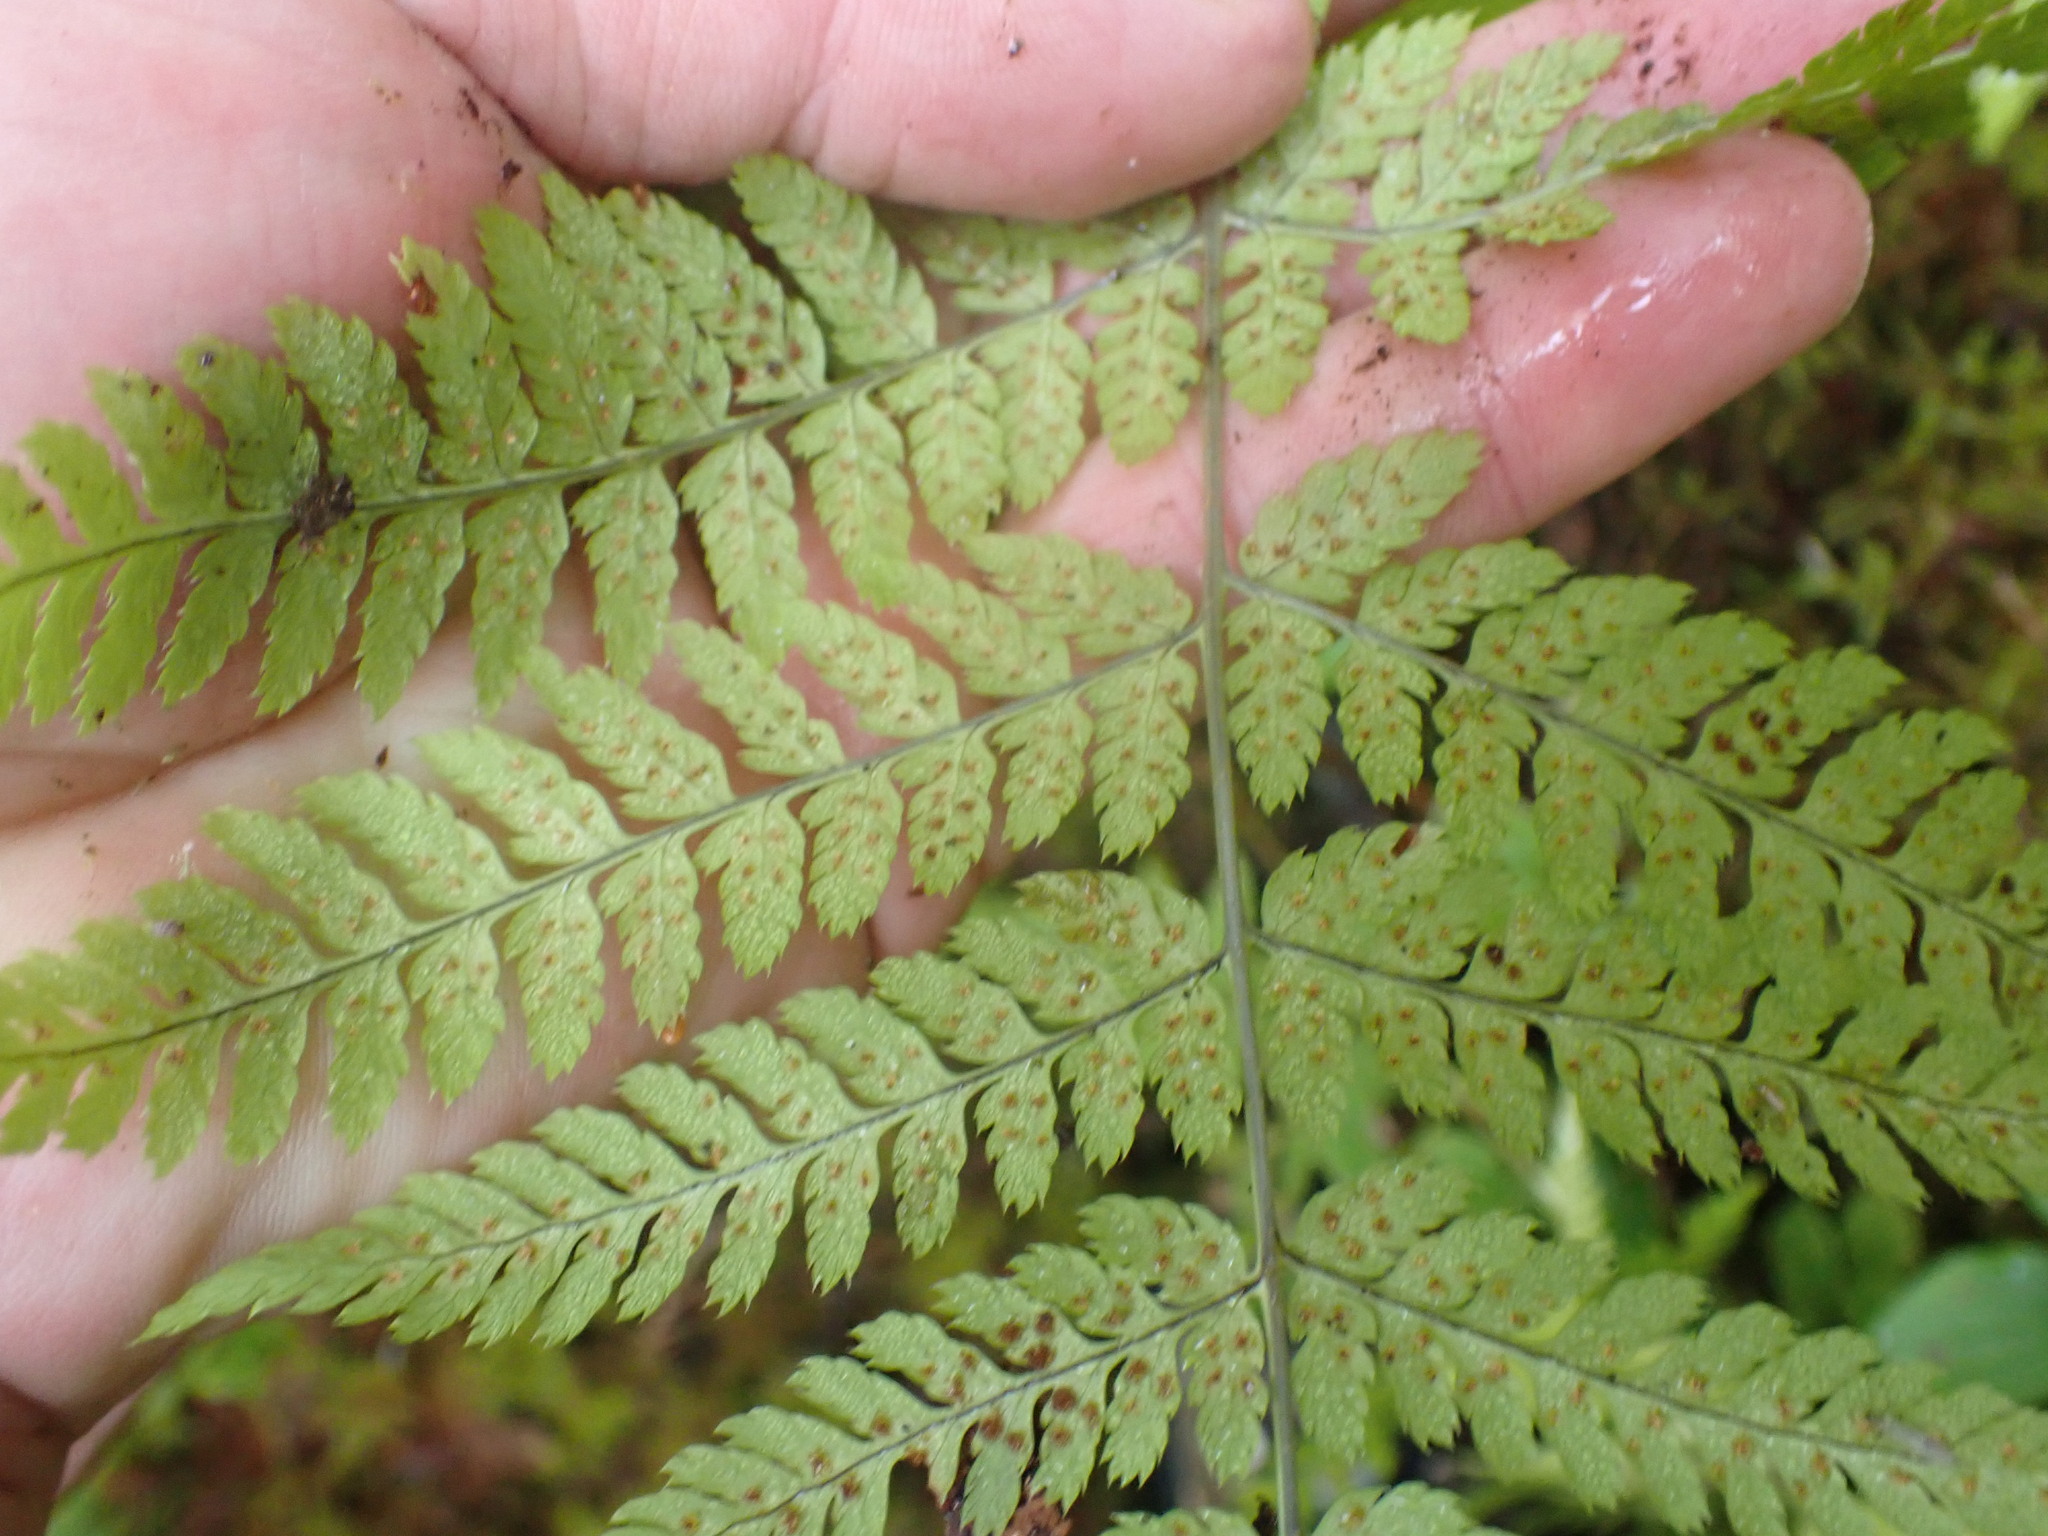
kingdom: Plantae
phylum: Tracheophyta
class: Polypodiopsida
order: Polypodiales
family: Dryopteridaceae
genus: Dryopteris
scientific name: Dryopteris expansa
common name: Northern buckler fern
